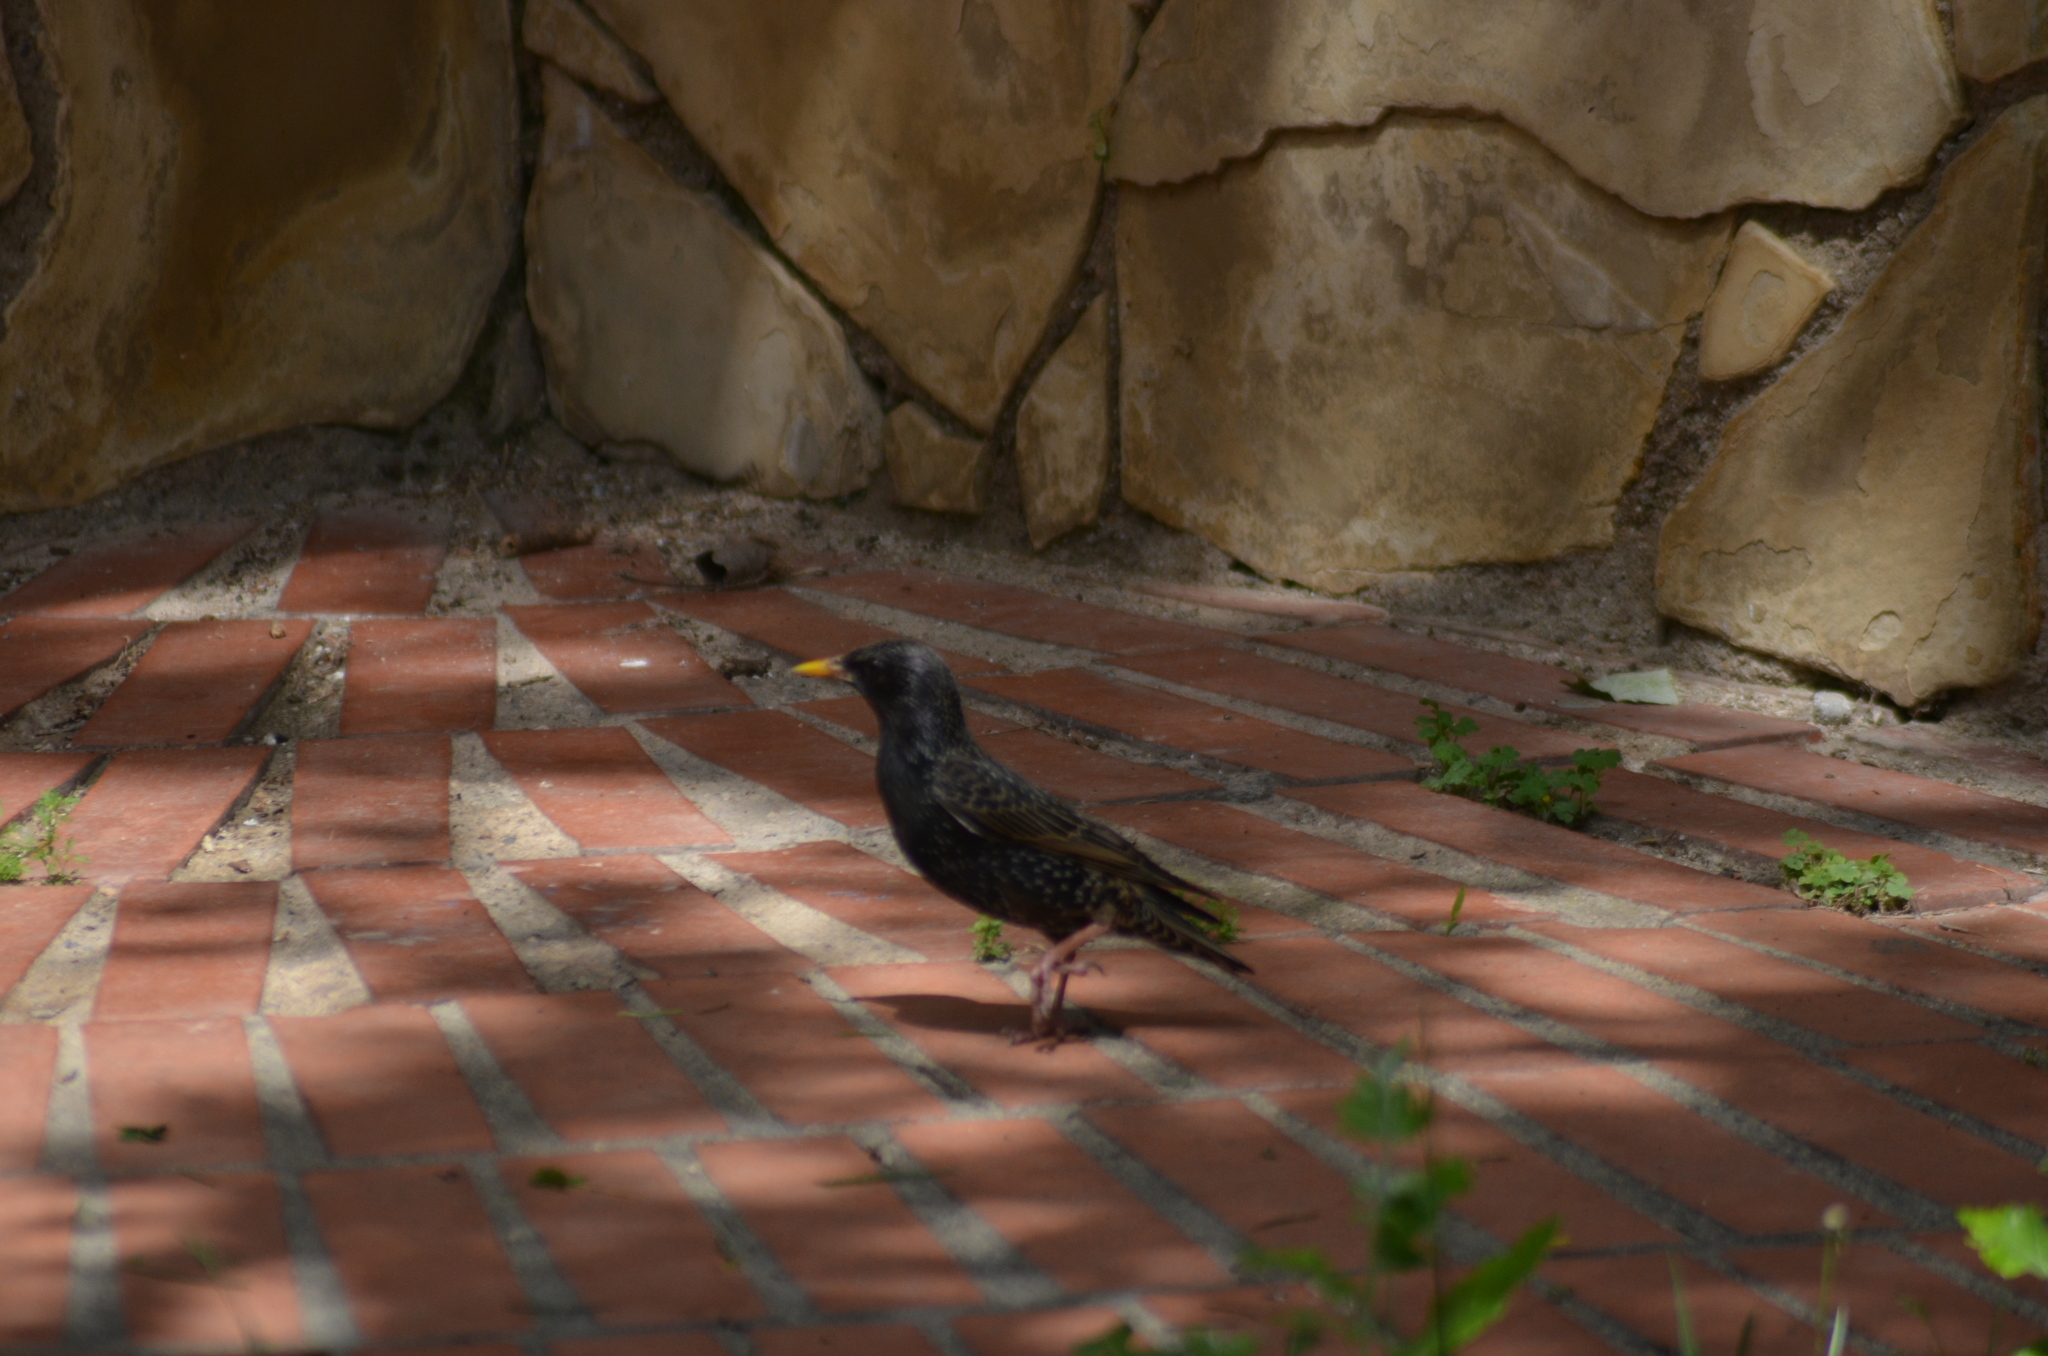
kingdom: Animalia
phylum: Chordata
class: Aves
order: Passeriformes
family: Sturnidae
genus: Sturnus
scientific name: Sturnus vulgaris
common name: Common starling
